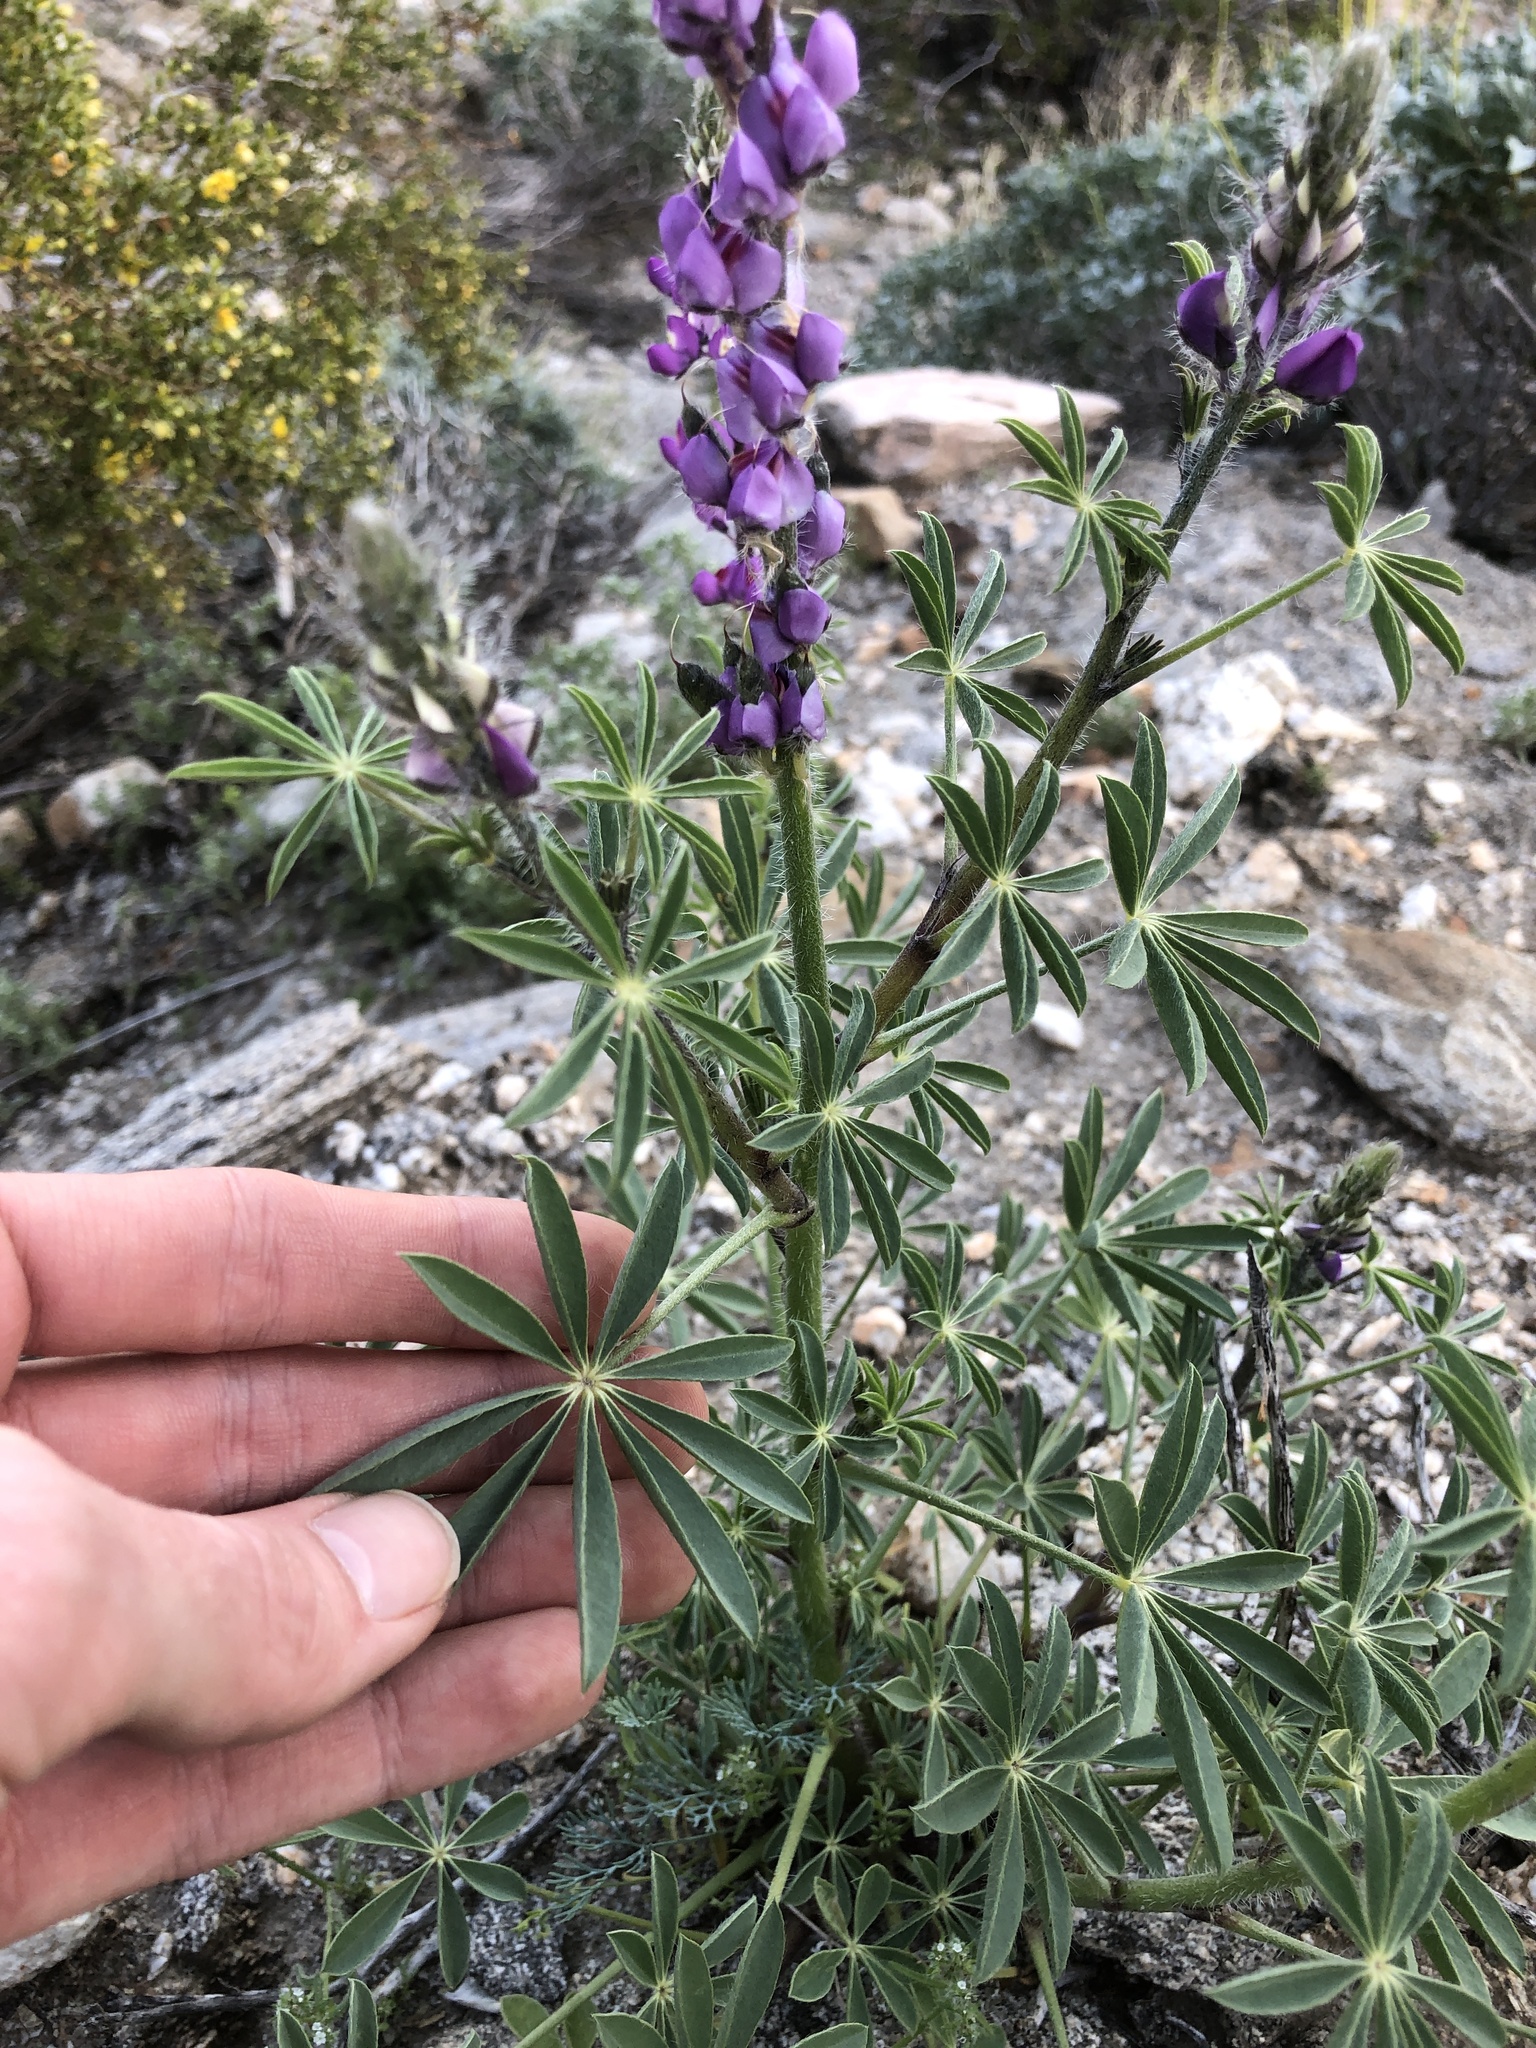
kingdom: Plantae
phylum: Tracheophyta
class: Magnoliopsida
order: Fabales
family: Fabaceae
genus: Lupinus
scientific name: Lupinus arizonicus
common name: Arizona lupine
